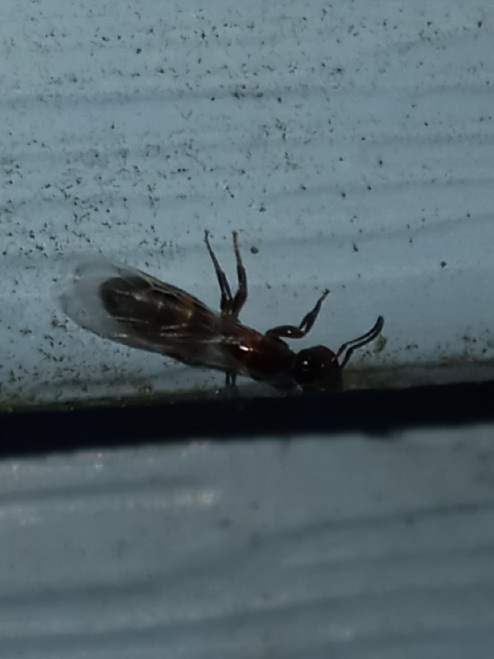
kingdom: Animalia
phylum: Arthropoda
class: Insecta
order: Hymenoptera
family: Formicidae
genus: Colobopsis
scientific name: Colobopsis
